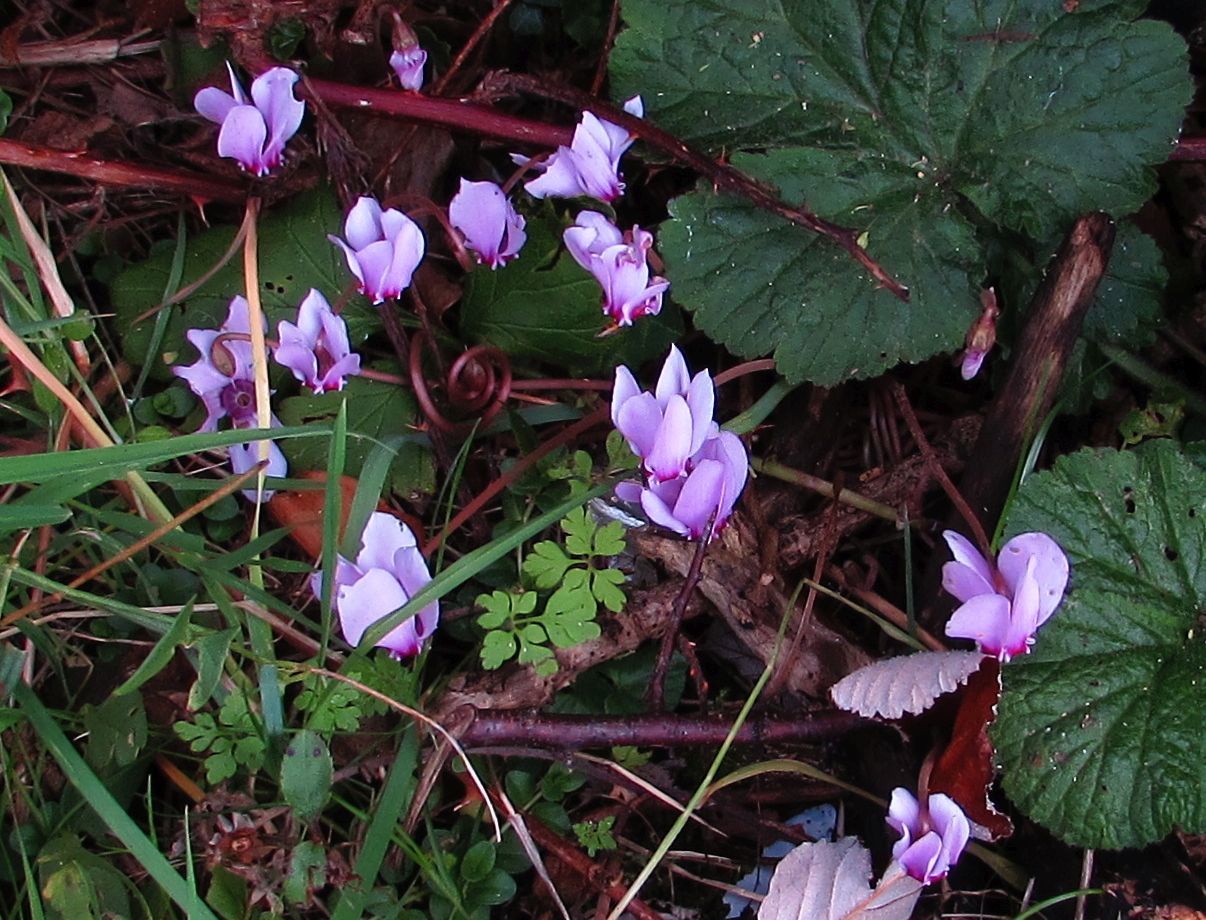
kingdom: Plantae
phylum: Tracheophyta
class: Magnoliopsida
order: Ericales
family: Primulaceae
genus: Cyclamen
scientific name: Cyclamen hederifolium
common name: Sowbread
